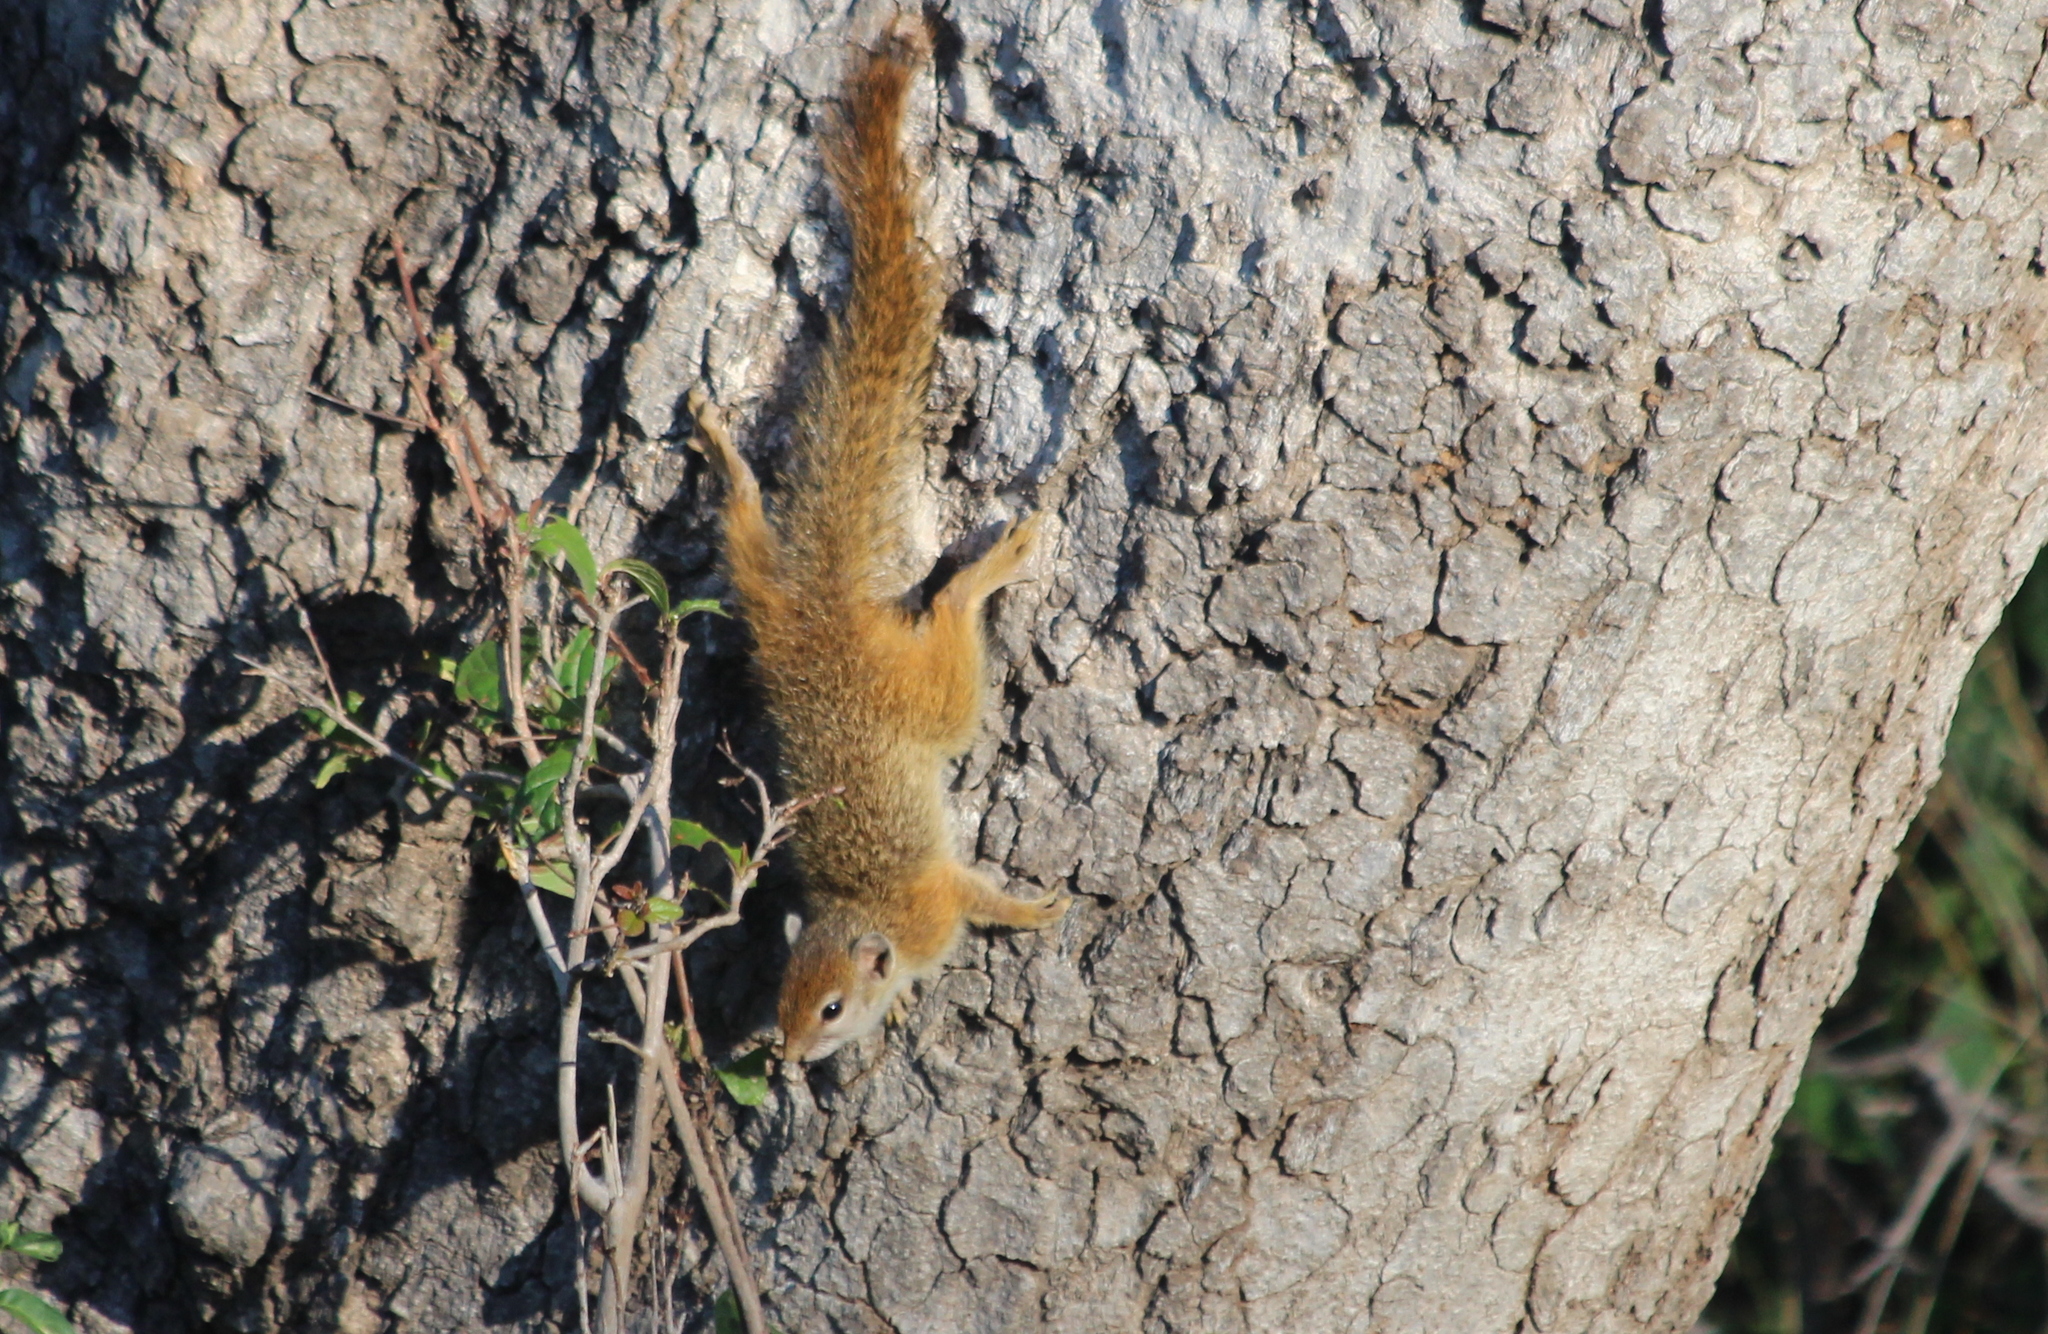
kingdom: Animalia
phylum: Chordata
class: Mammalia
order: Rodentia
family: Sciuridae
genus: Paraxerus
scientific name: Paraxerus cepapi
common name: Smith's bush squirrel
